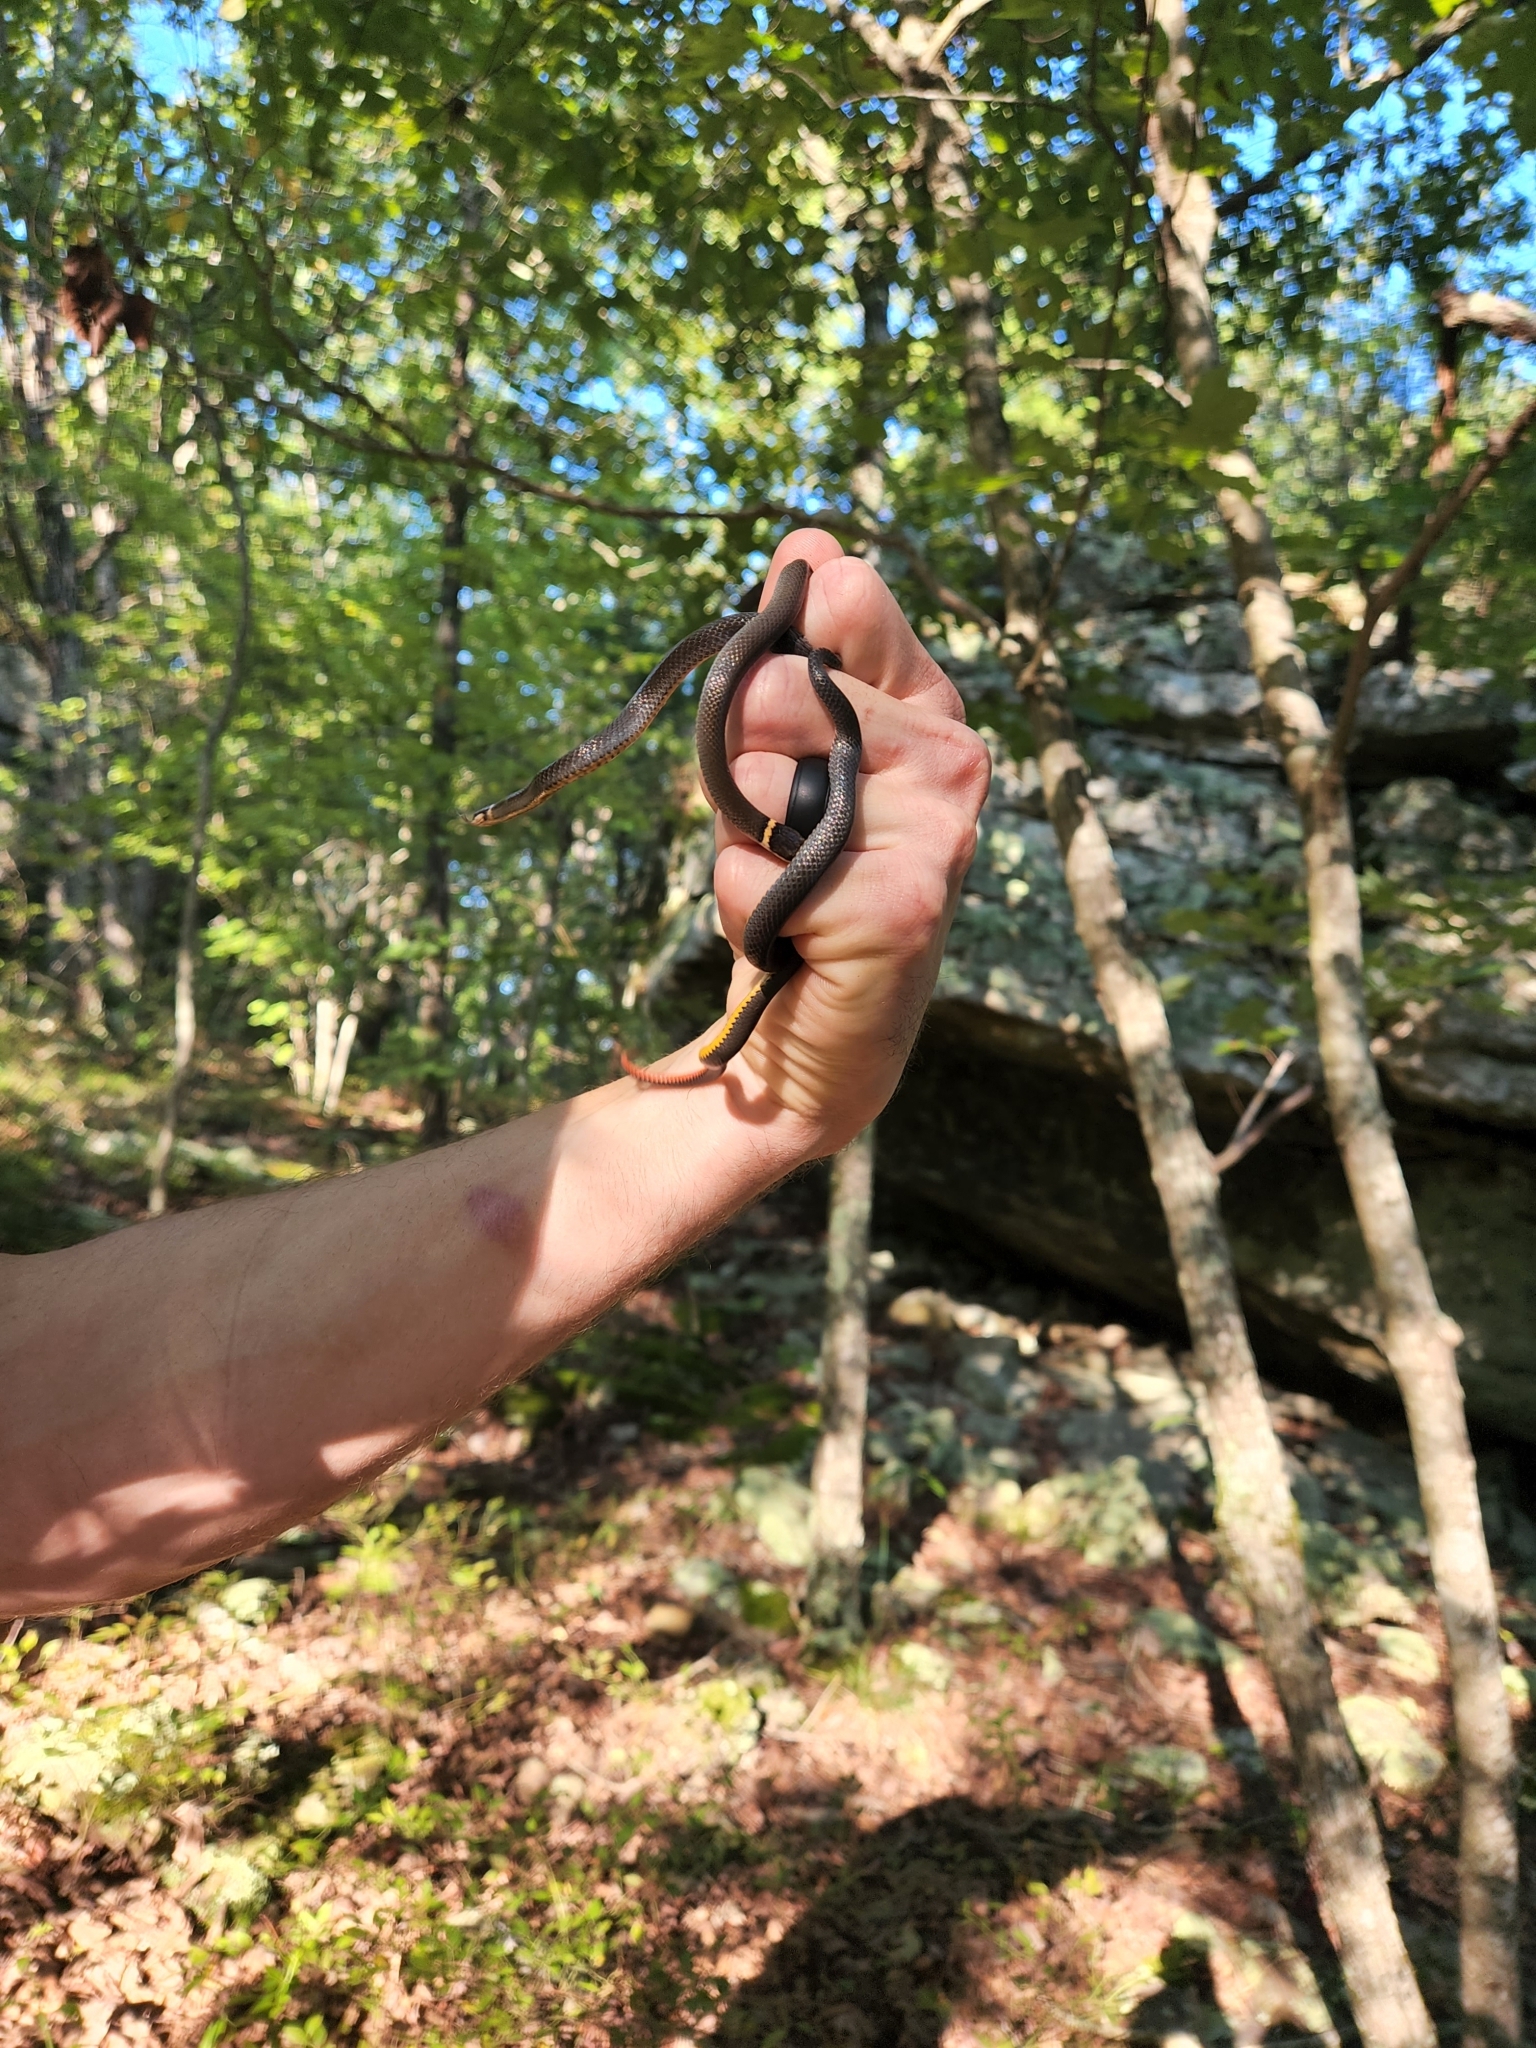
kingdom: Animalia
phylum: Chordata
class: Squamata
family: Colubridae
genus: Diadophis
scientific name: Diadophis punctatus
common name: Ringneck snake
